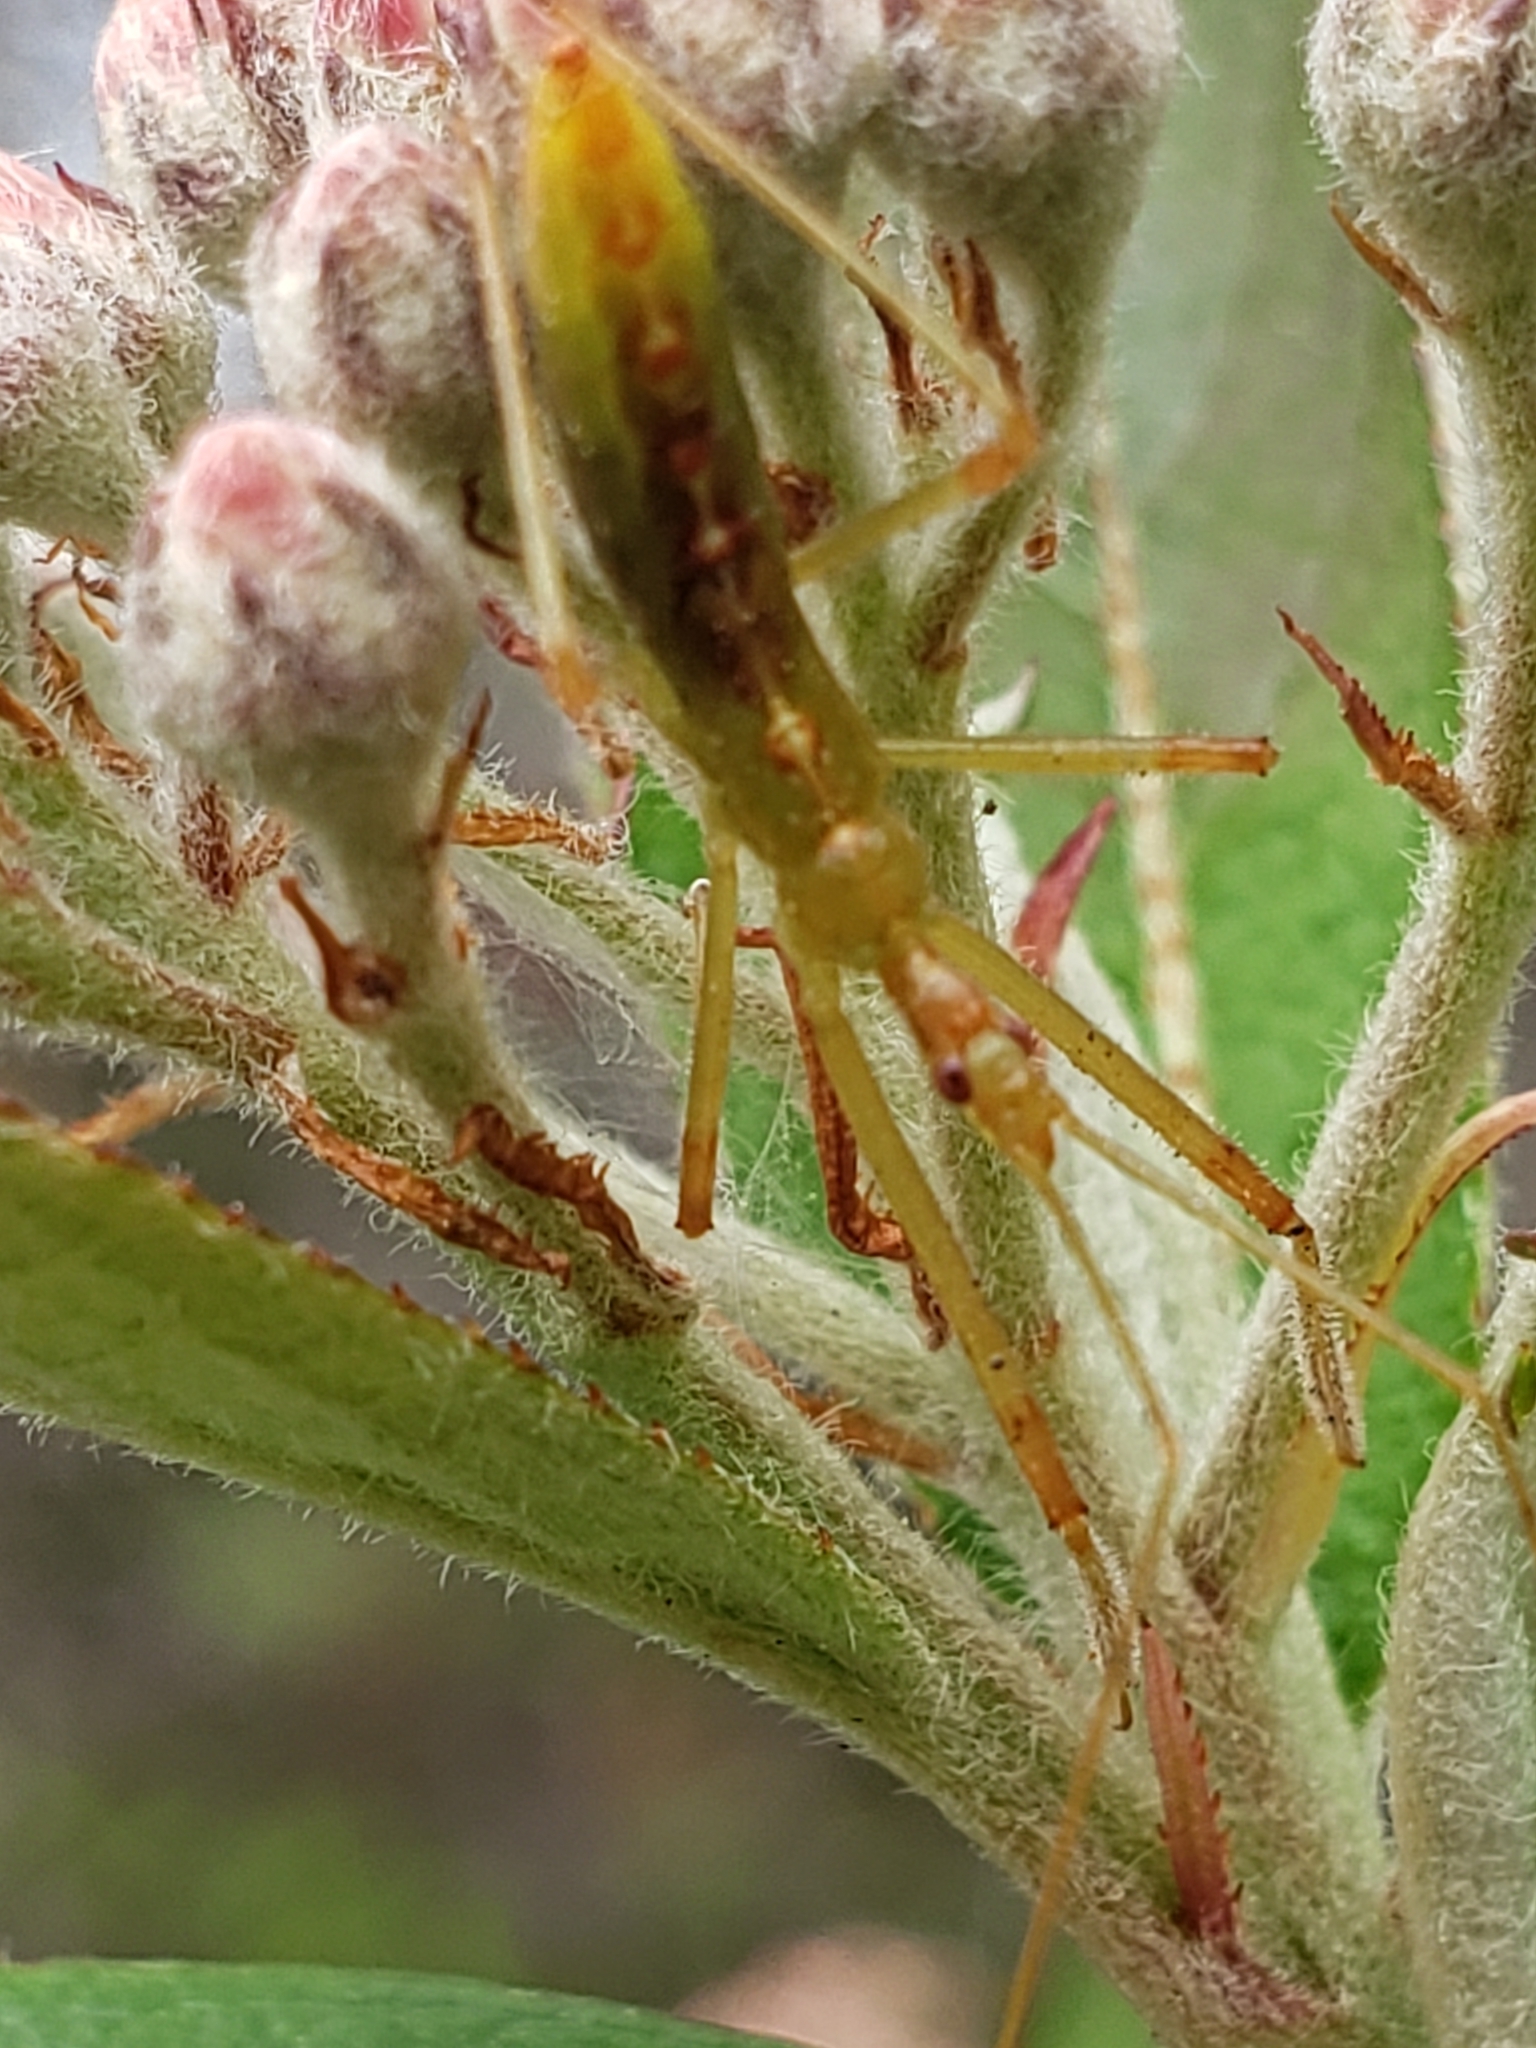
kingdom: Animalia
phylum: Arthropoda
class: Insecta
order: Hemiptera
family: Reduviidae
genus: Zelus
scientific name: Zelus luridus
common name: Pale green assassin bug
